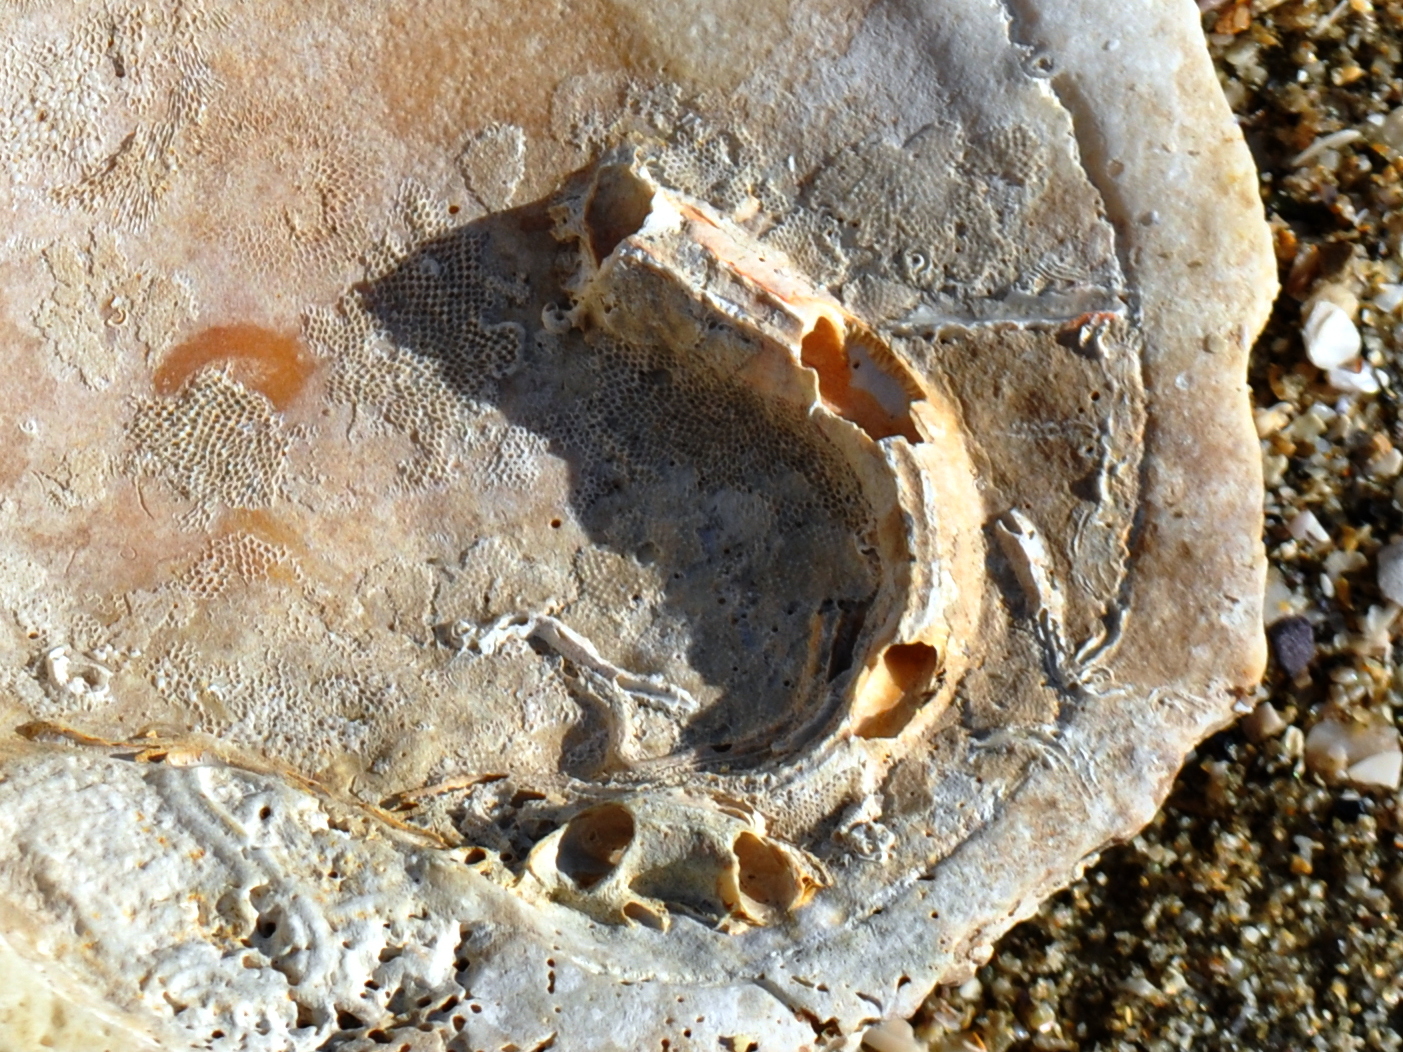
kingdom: Animalia
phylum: Annelida
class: Polychaeta
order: Sabellida
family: Serpulidae
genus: Galeolaria
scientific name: Galeolaria hystrix
